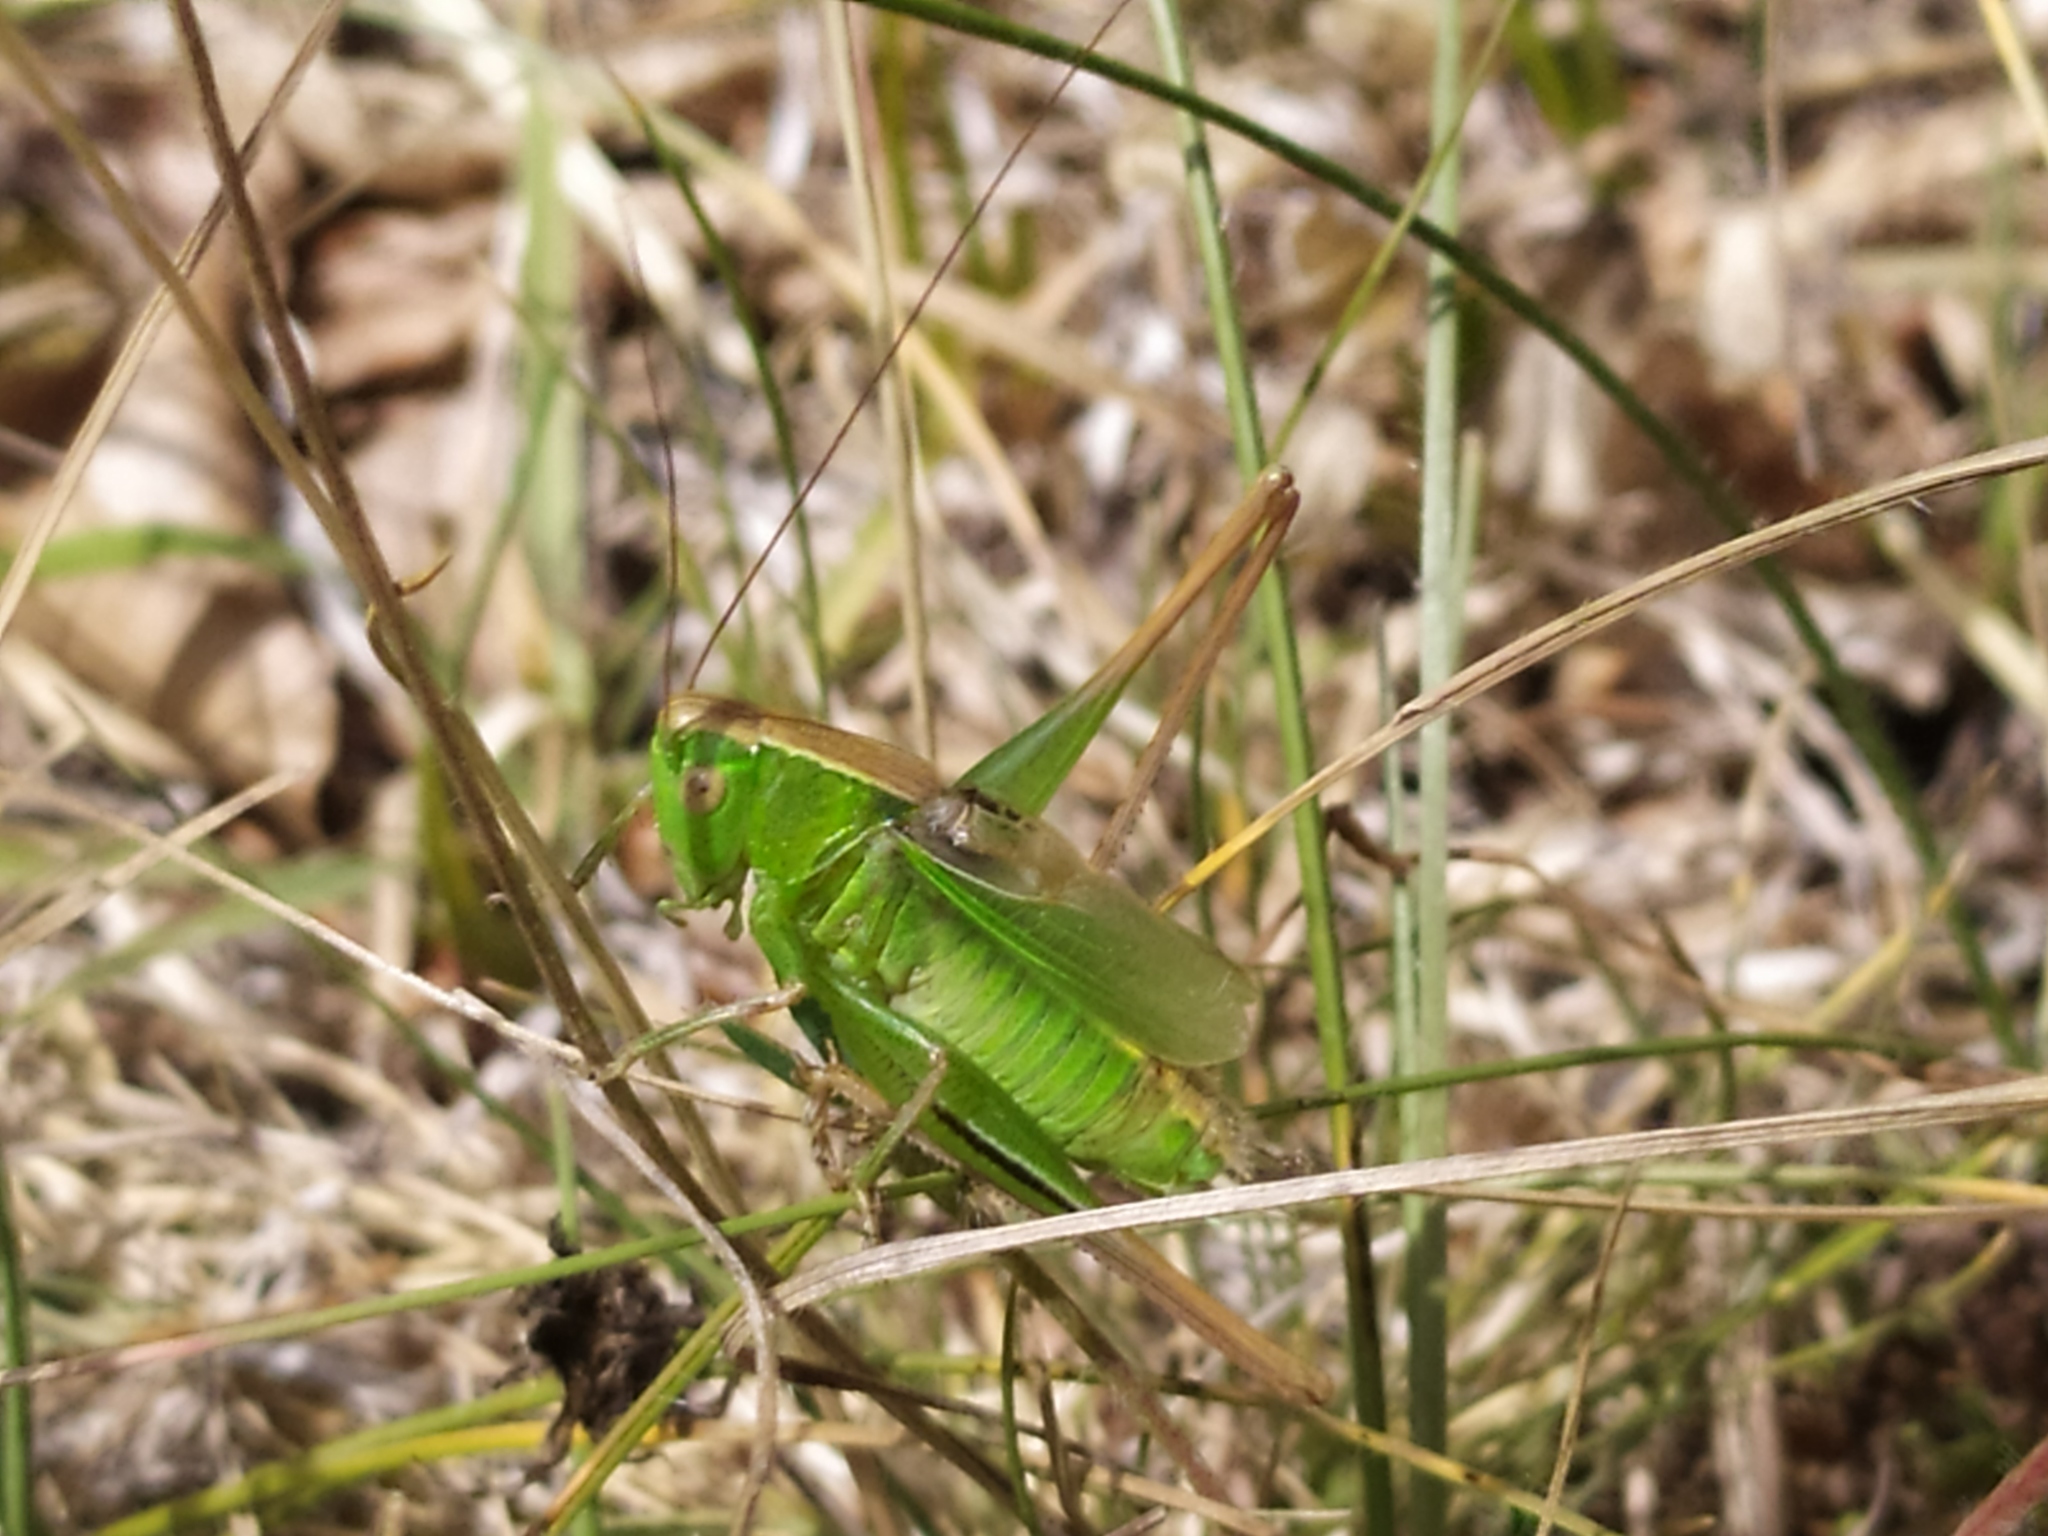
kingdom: Animalia
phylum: Arthropoda
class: Insecta
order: Orthoptera
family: Tettigoniidae
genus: Bicolorana
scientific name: Bicolorana bicolor
